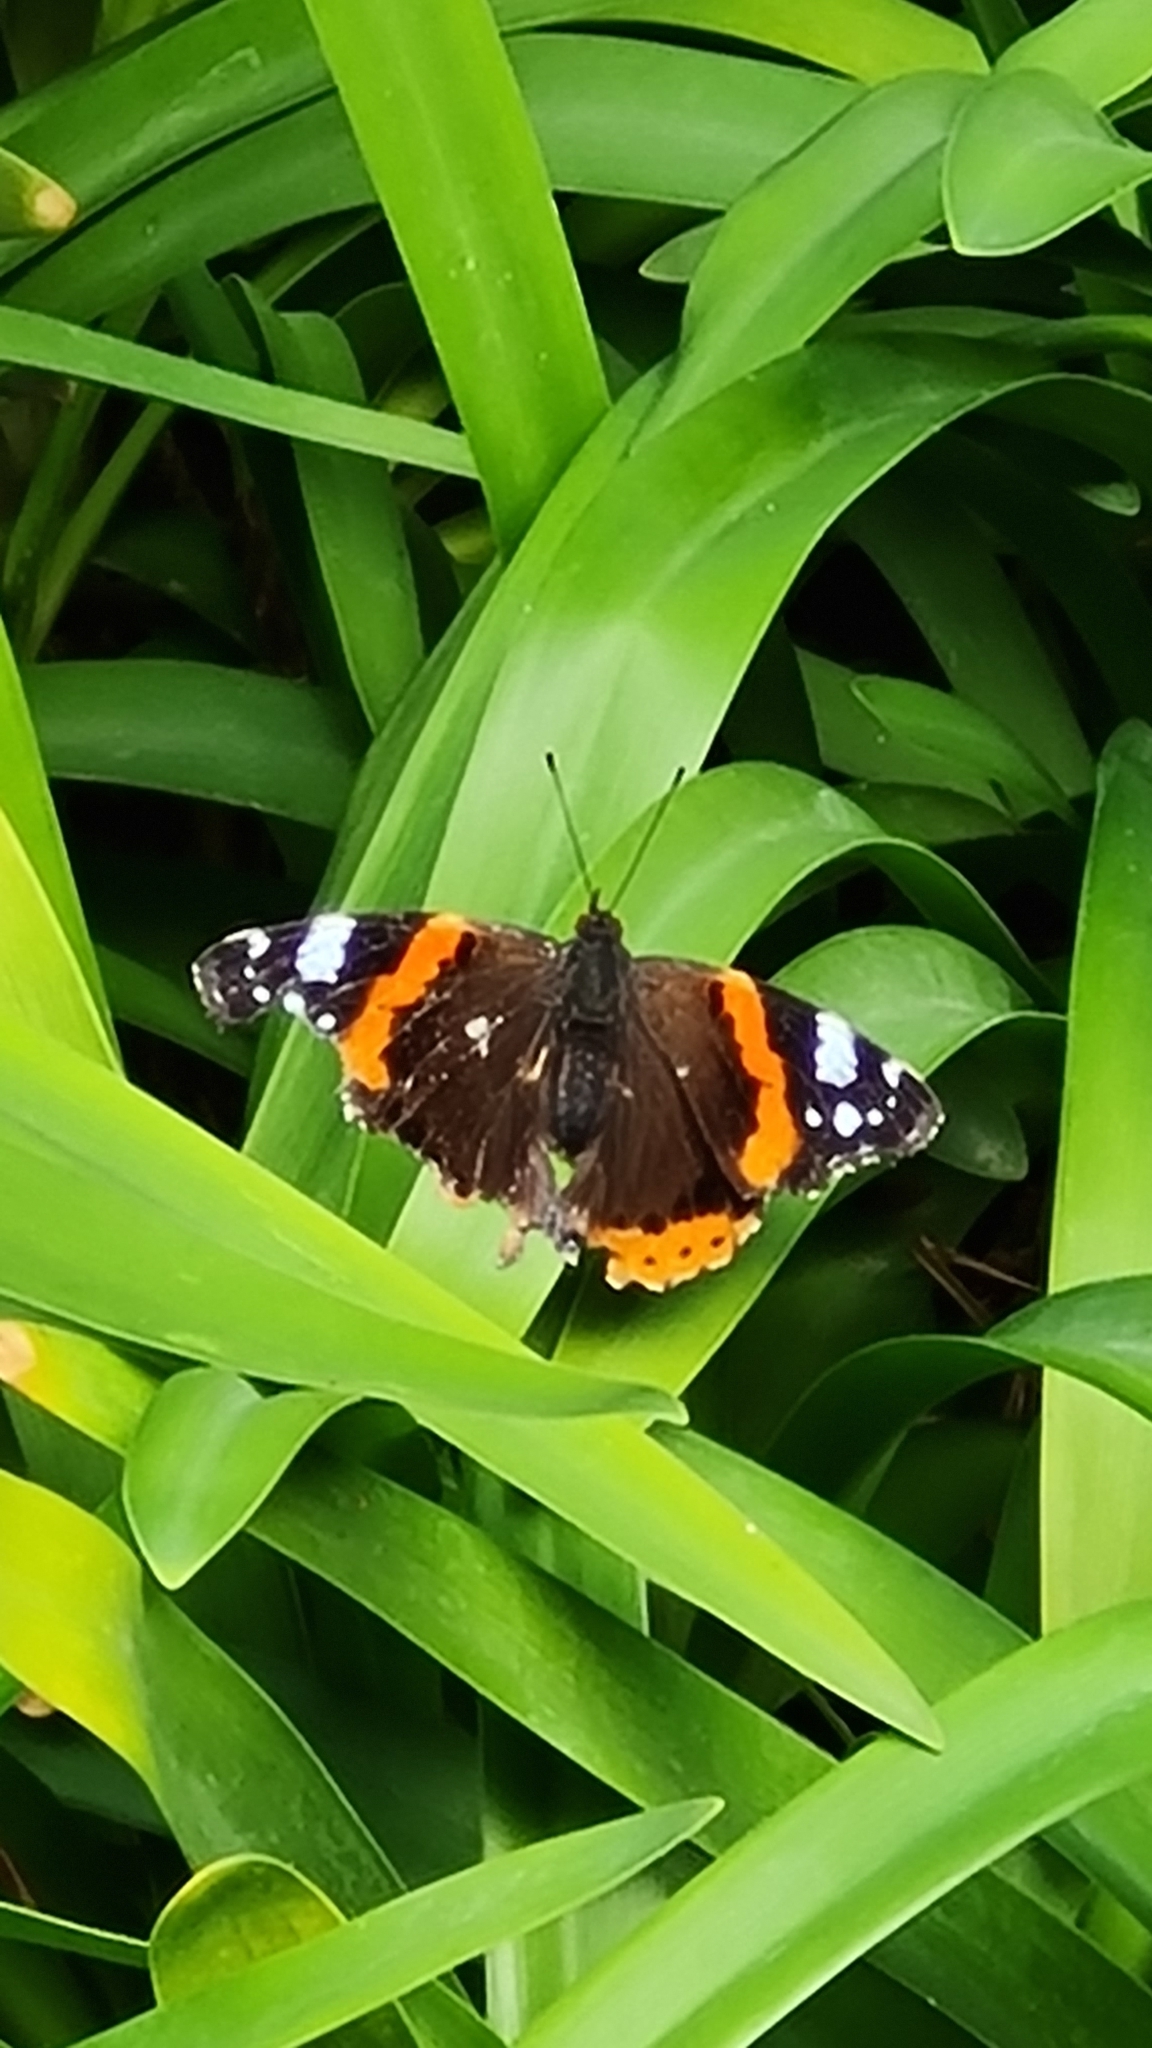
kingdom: Animalia
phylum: Arthropoda
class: Insecta
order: Lepidoptera
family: Nymphalidae
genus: Vanessa
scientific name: Vanessa atalanta
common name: Red admiral
